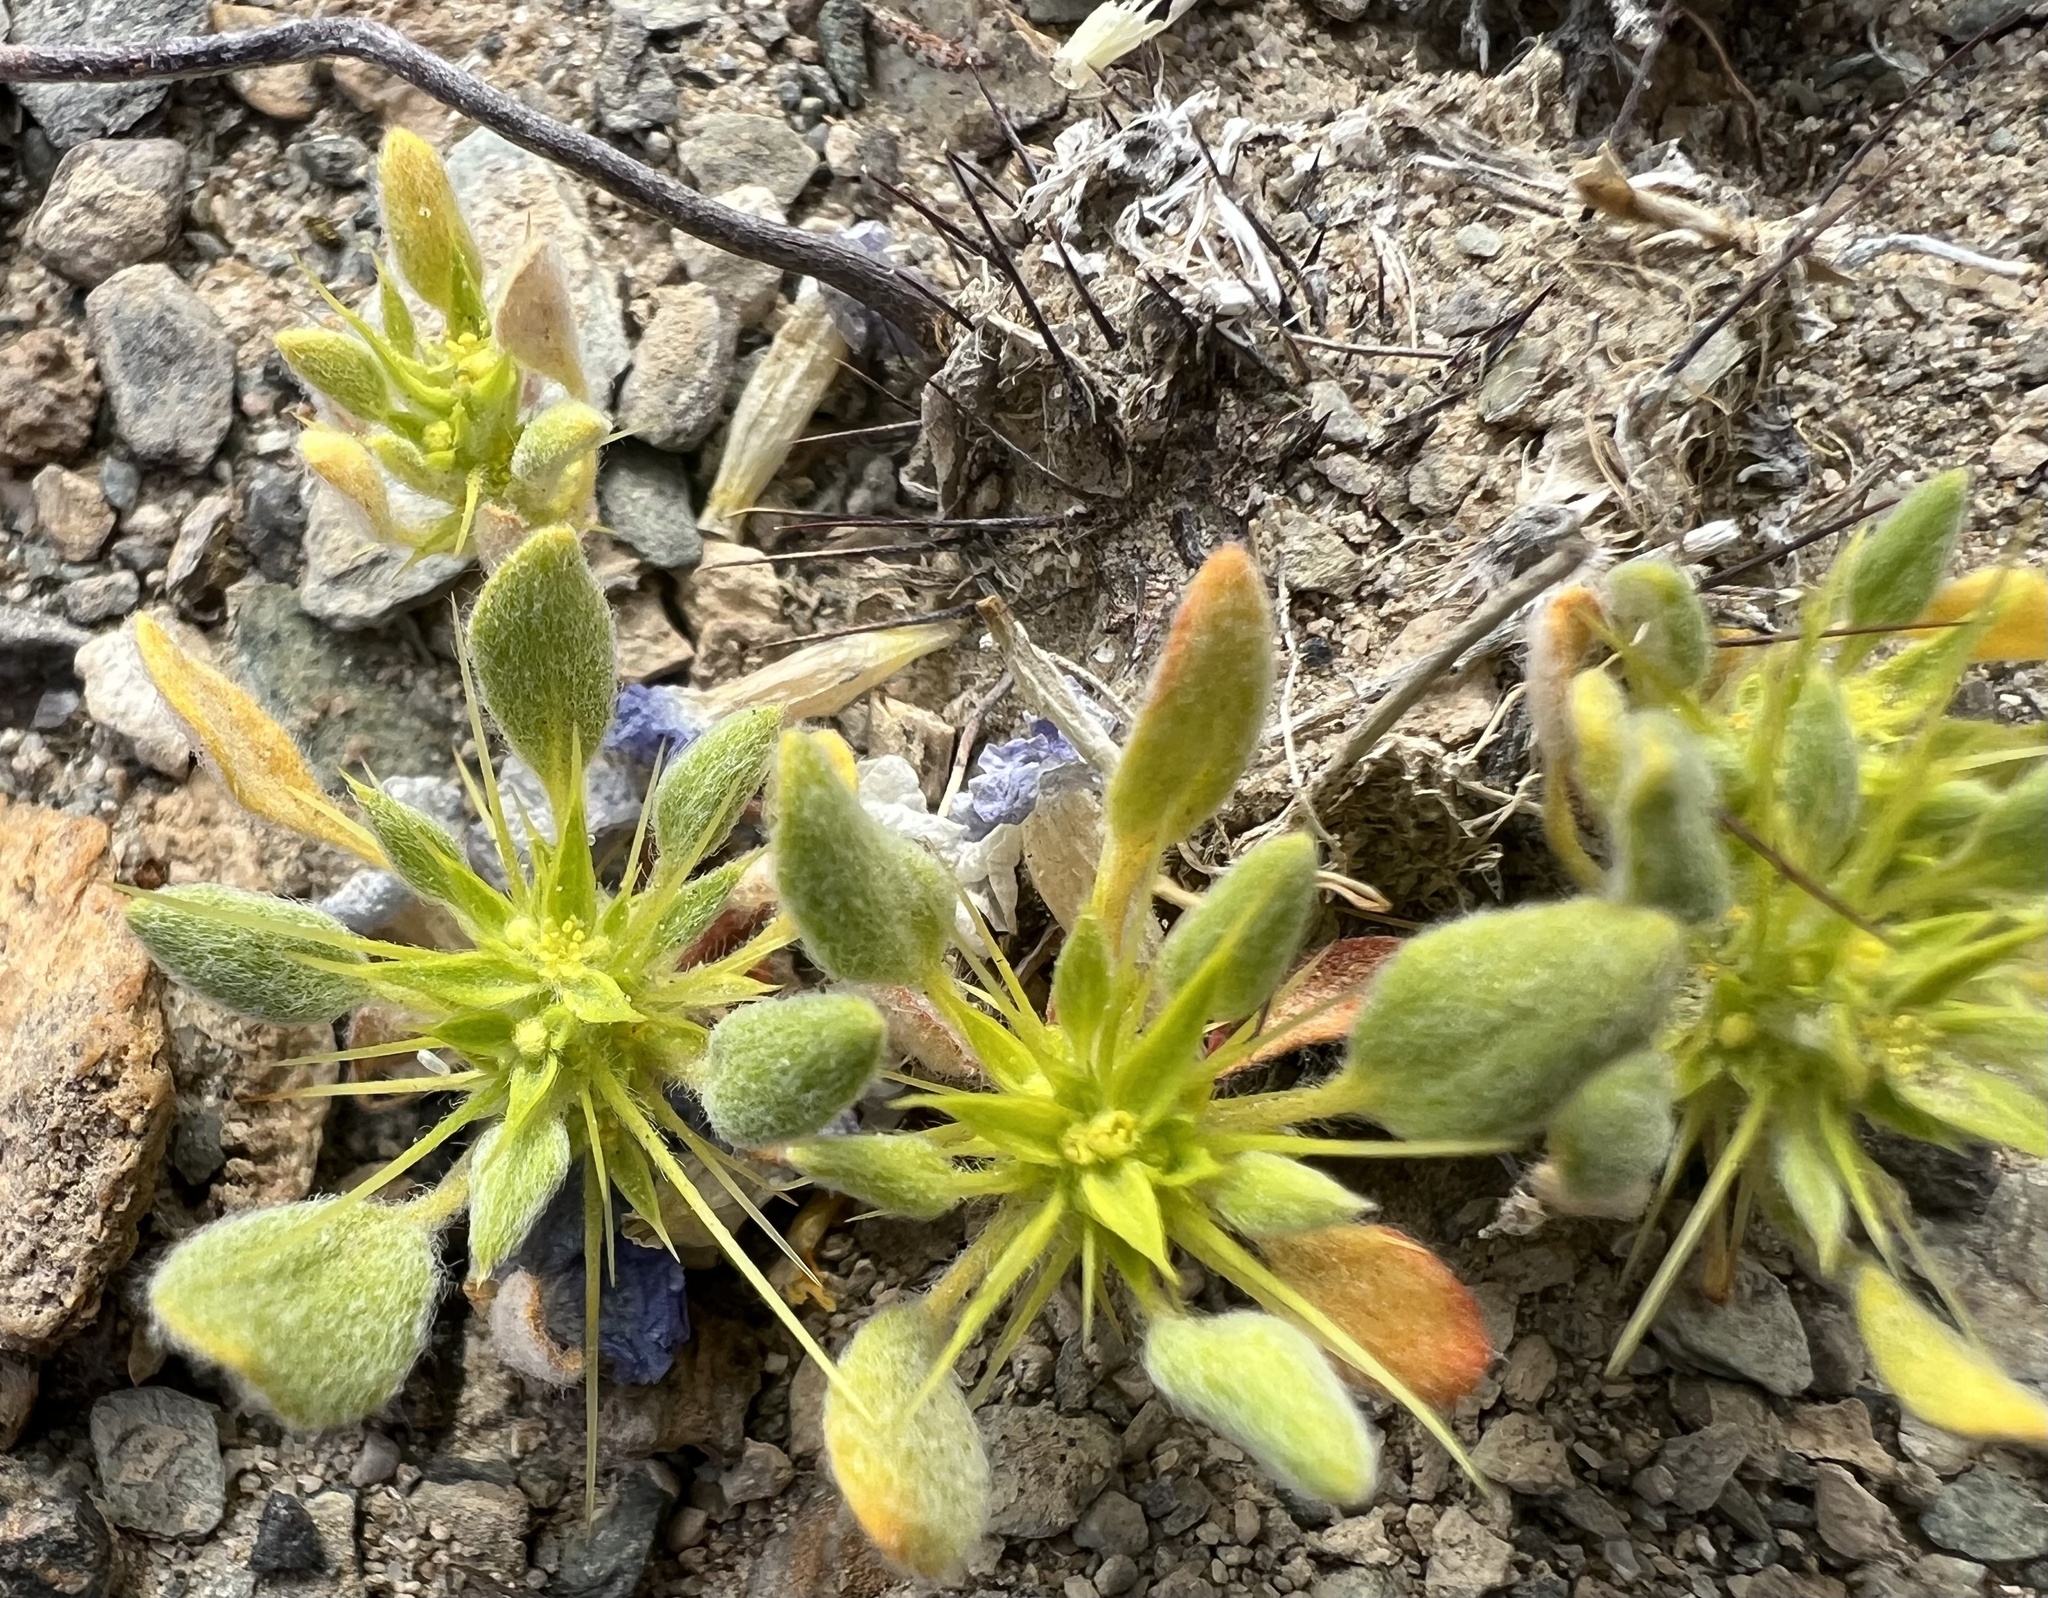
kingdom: Plantae
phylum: Tracheophyta
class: Magnoliopsida
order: Caryophyllales
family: Polygonaceae
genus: Chorizanthe
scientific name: Chorizanthe rigida
